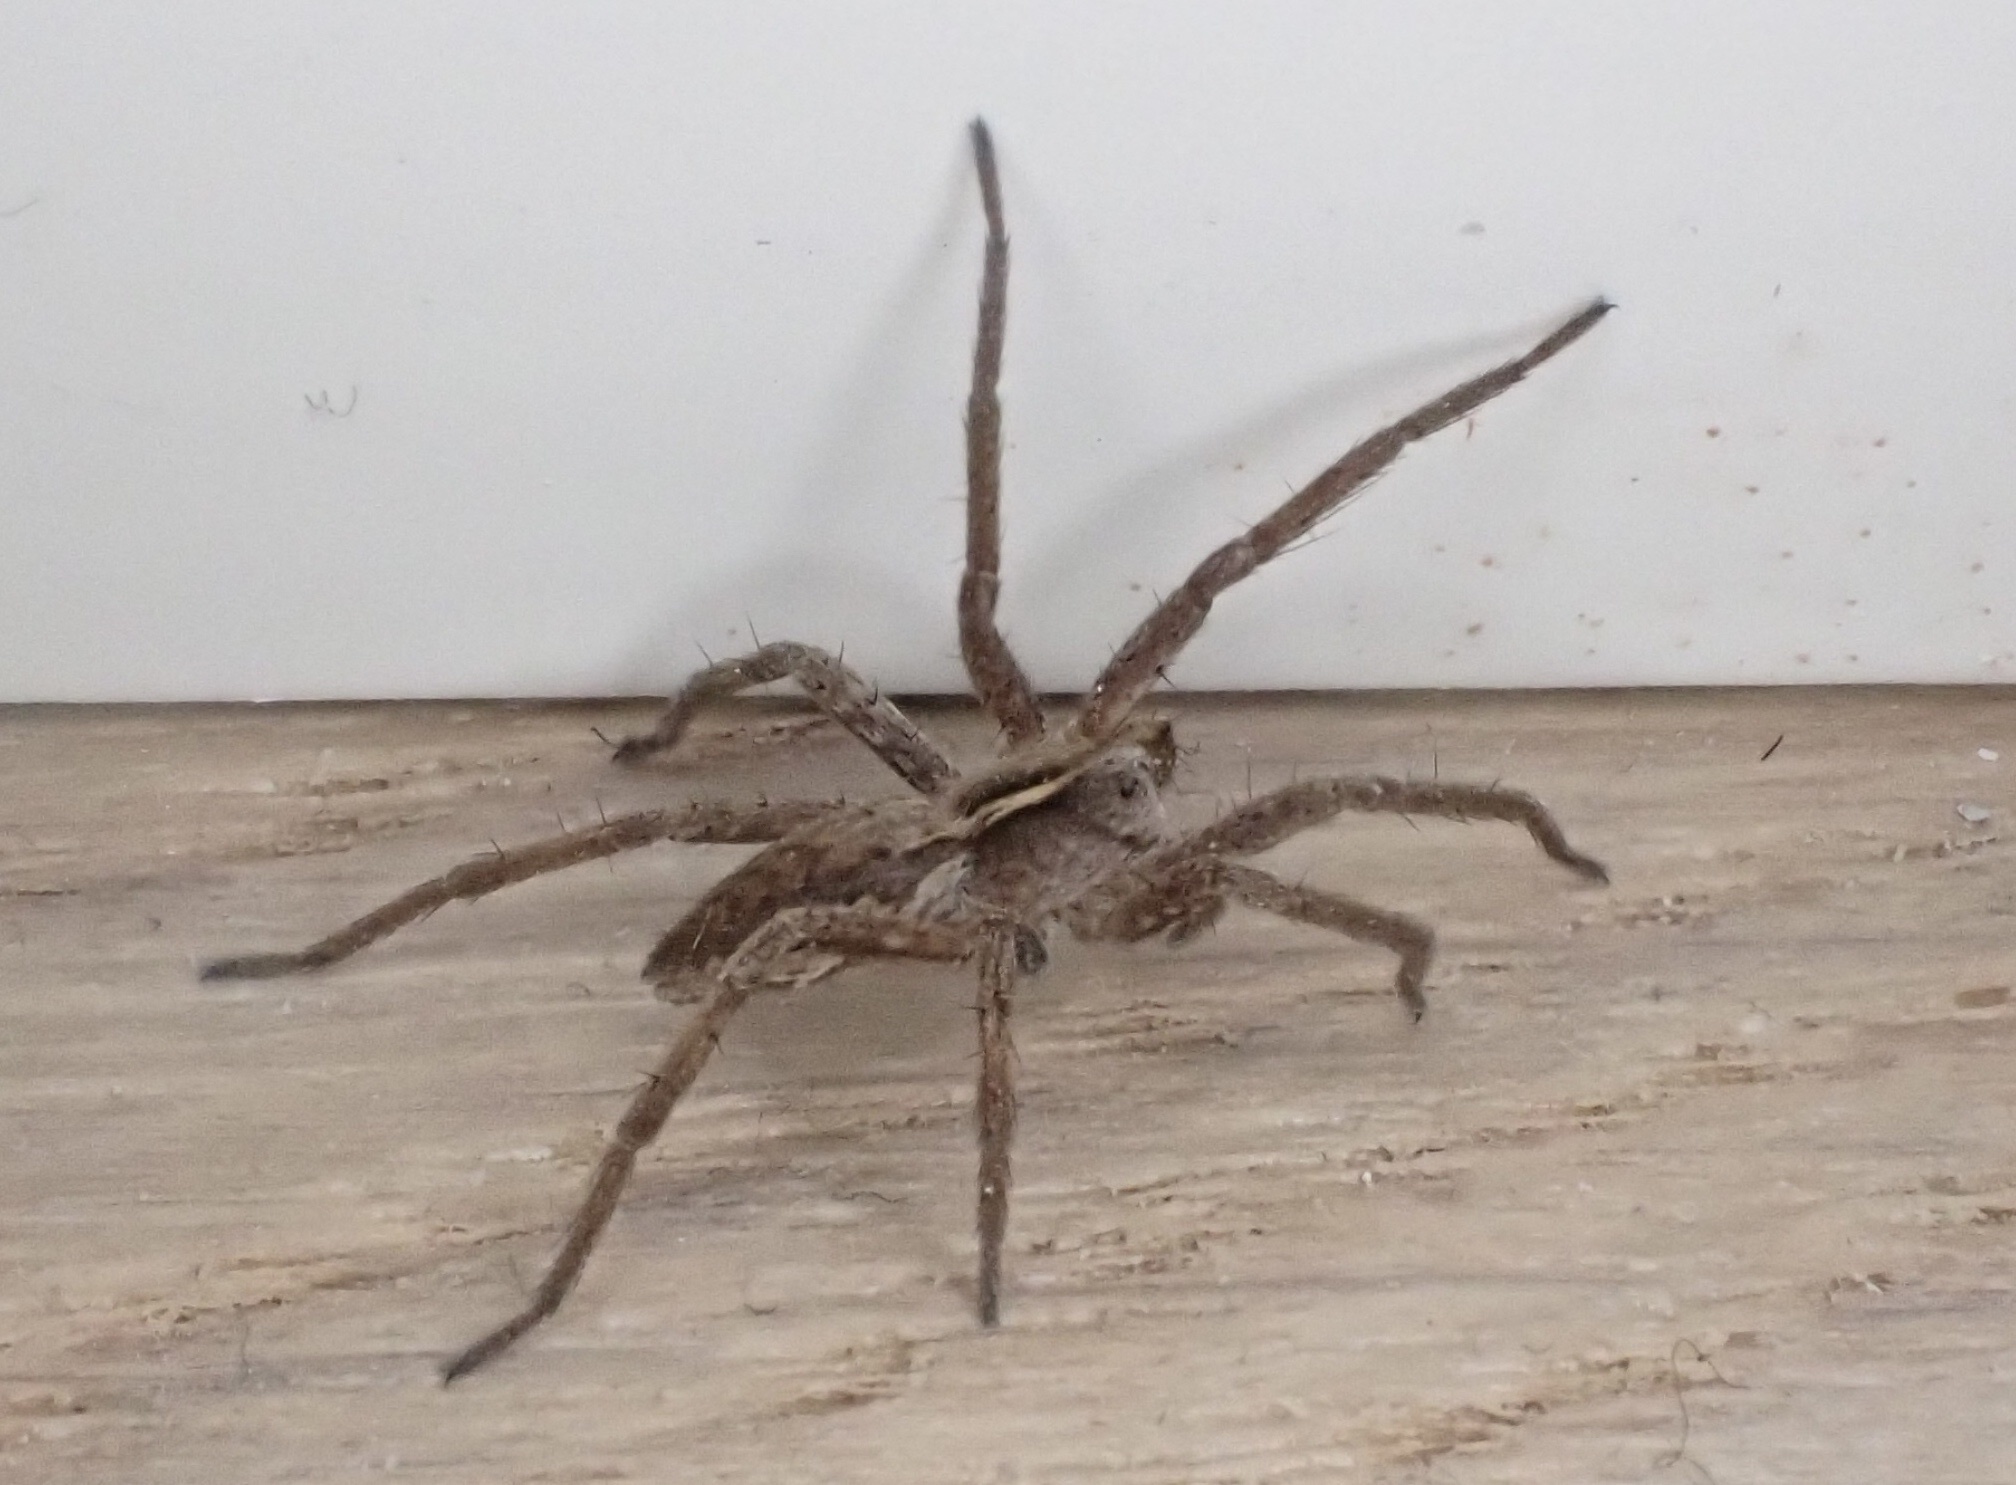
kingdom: Animalia
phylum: Arthropoda
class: Arachnida
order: Araneae
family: Pisauridae
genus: Pisaura
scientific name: Pisaura mirabilis
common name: Tent spider
